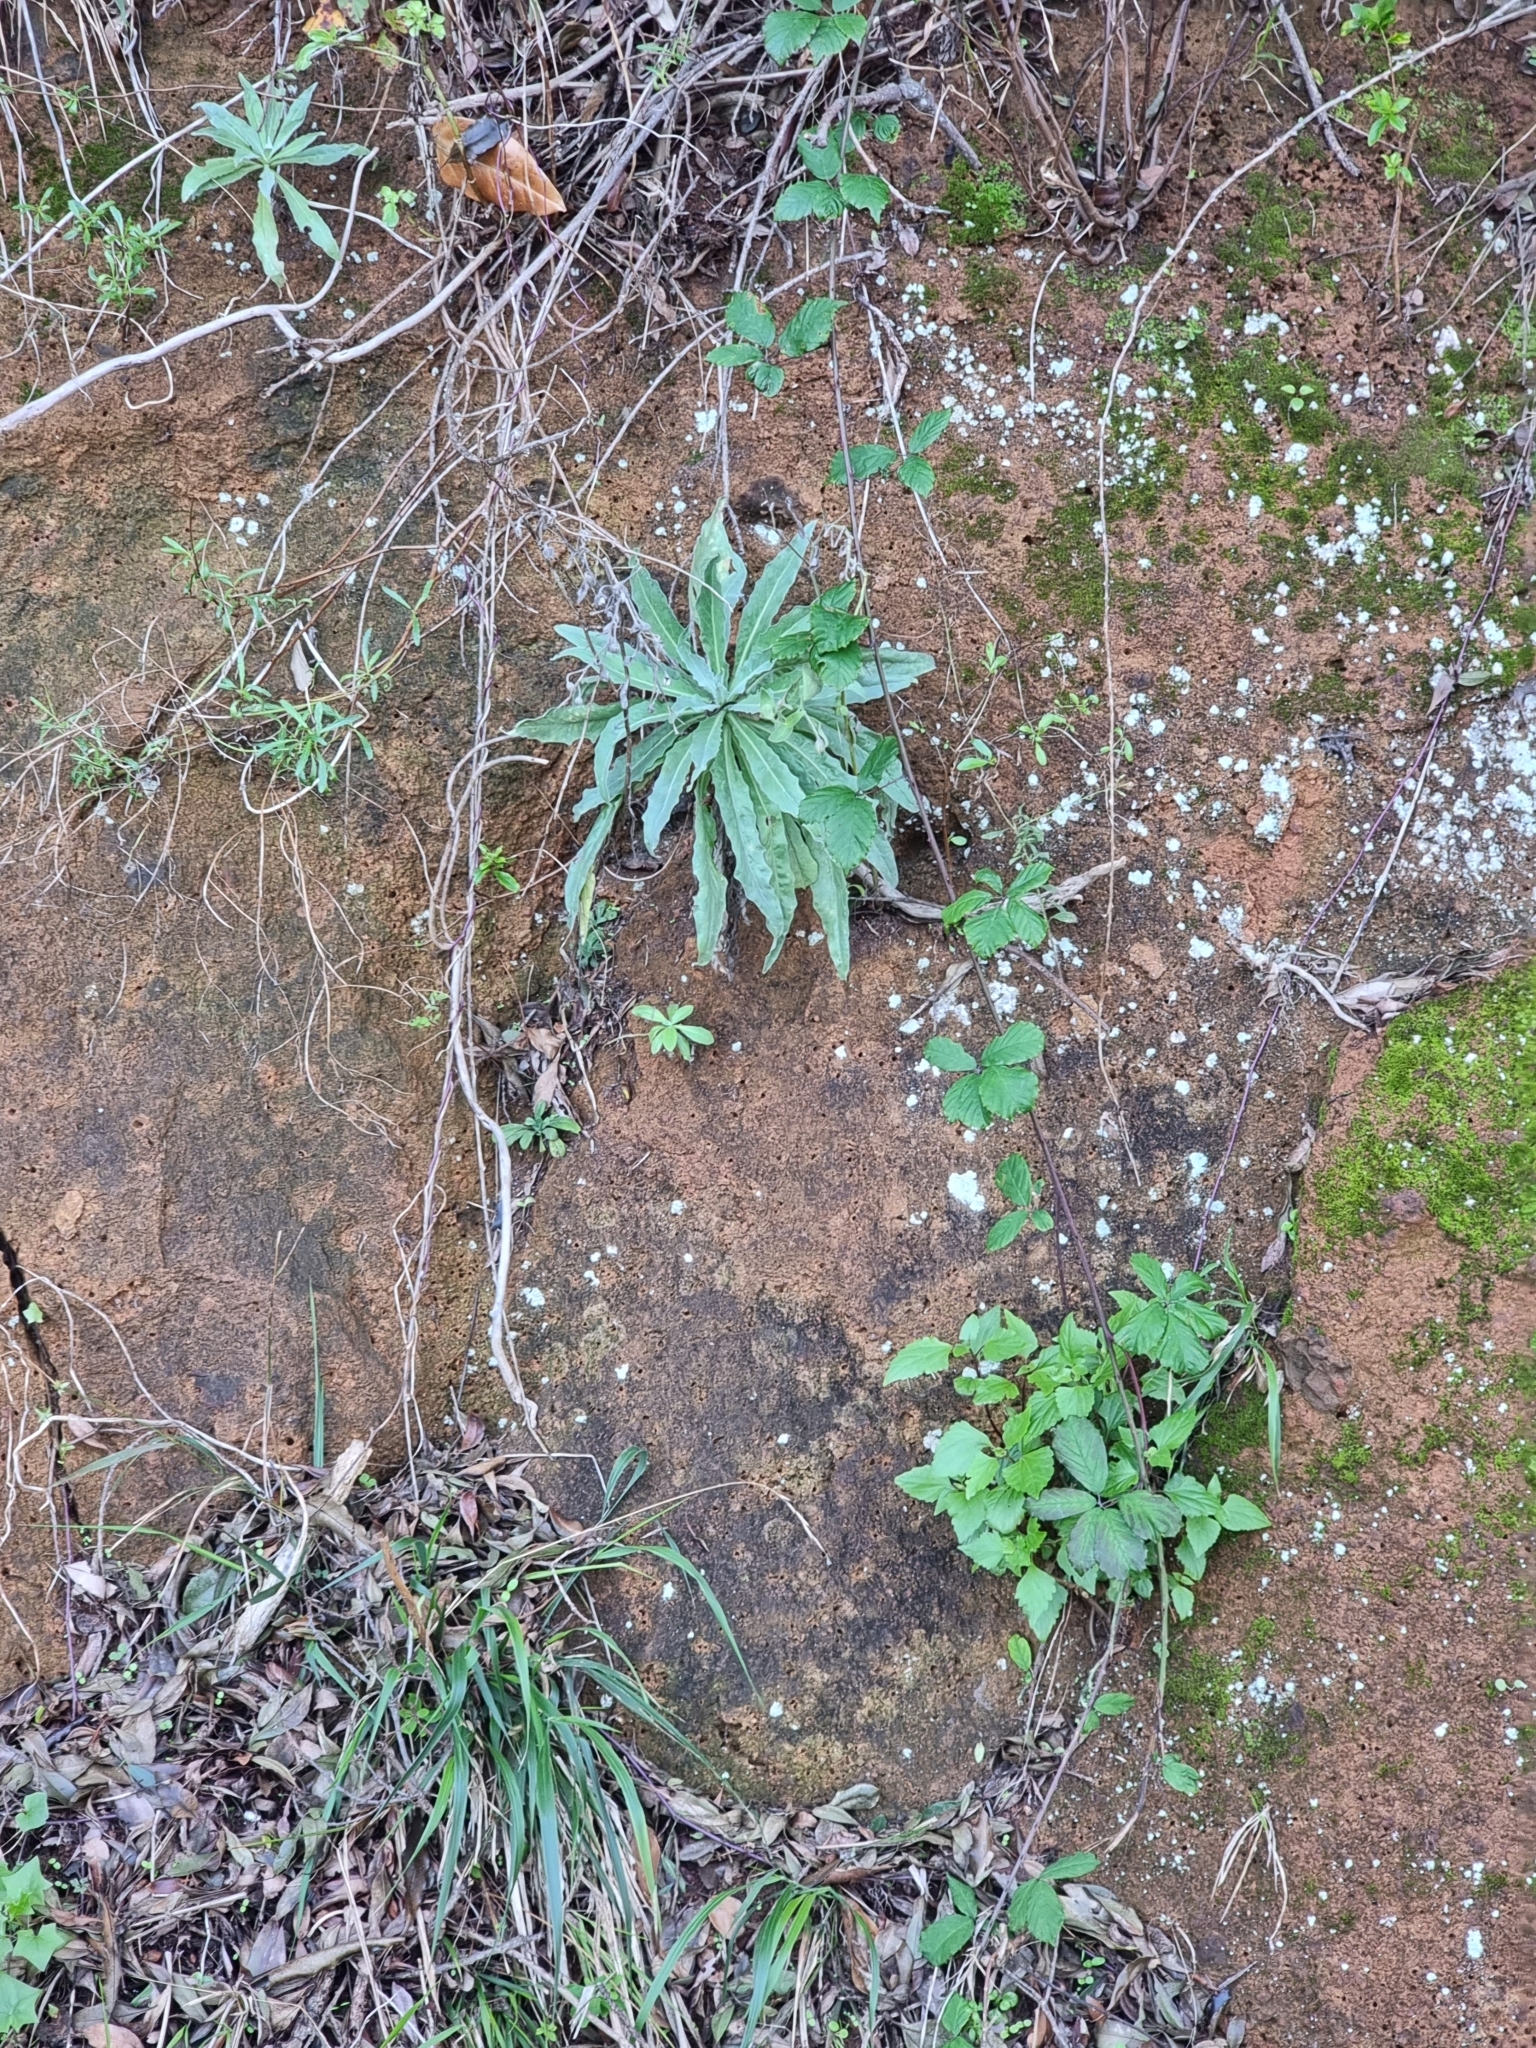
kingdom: Plantae
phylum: Tracheophyta
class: Magnoliopsida
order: Asterales
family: Asteraceae
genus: Andryala
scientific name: Andryala glandulosa
